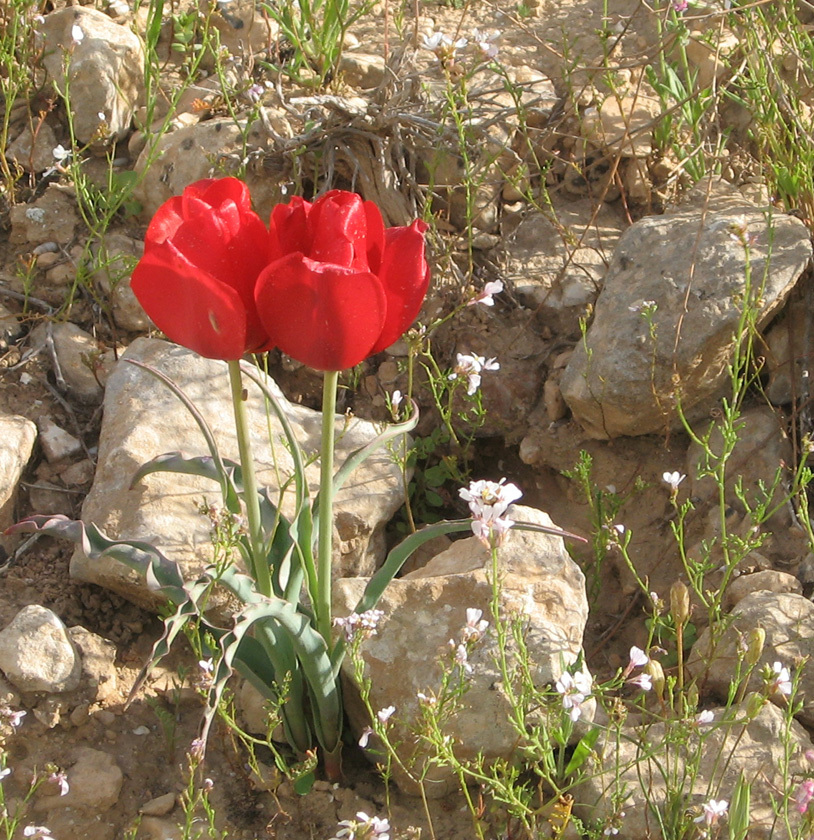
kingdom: Plantae
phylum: Tracheophyta
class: Liliopsida
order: Liliales
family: Liliaceae
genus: Tulipa
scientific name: Tulipa systola
